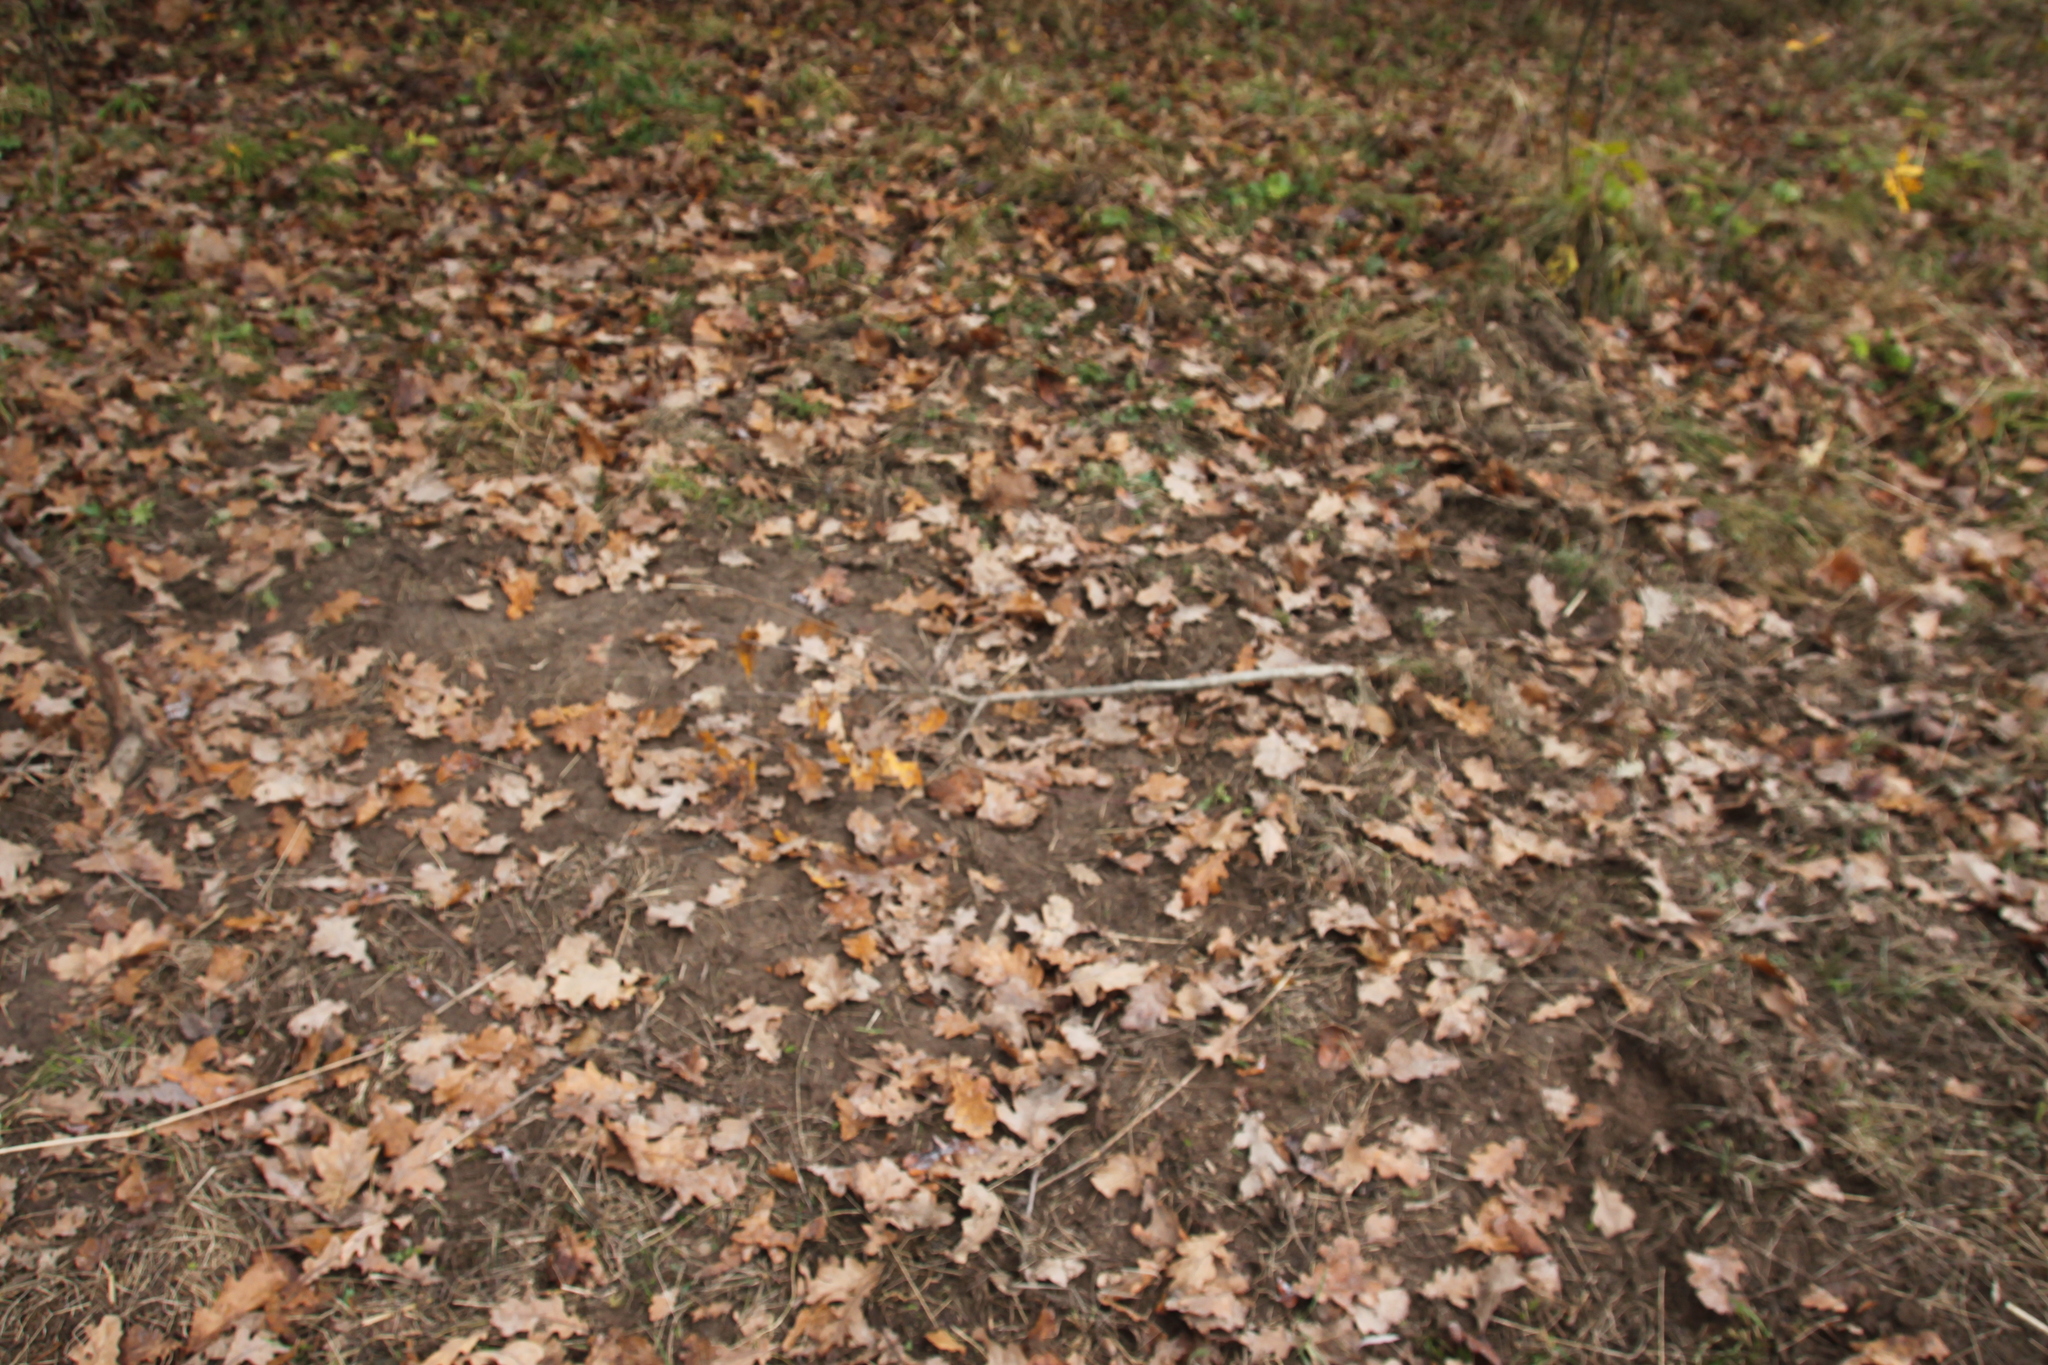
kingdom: Plantae
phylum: Tracheophyta
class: Magnoliopsida
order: Fagales
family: Fagaceae
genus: Quercus
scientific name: Quercus robur
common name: Pedunculate oak
